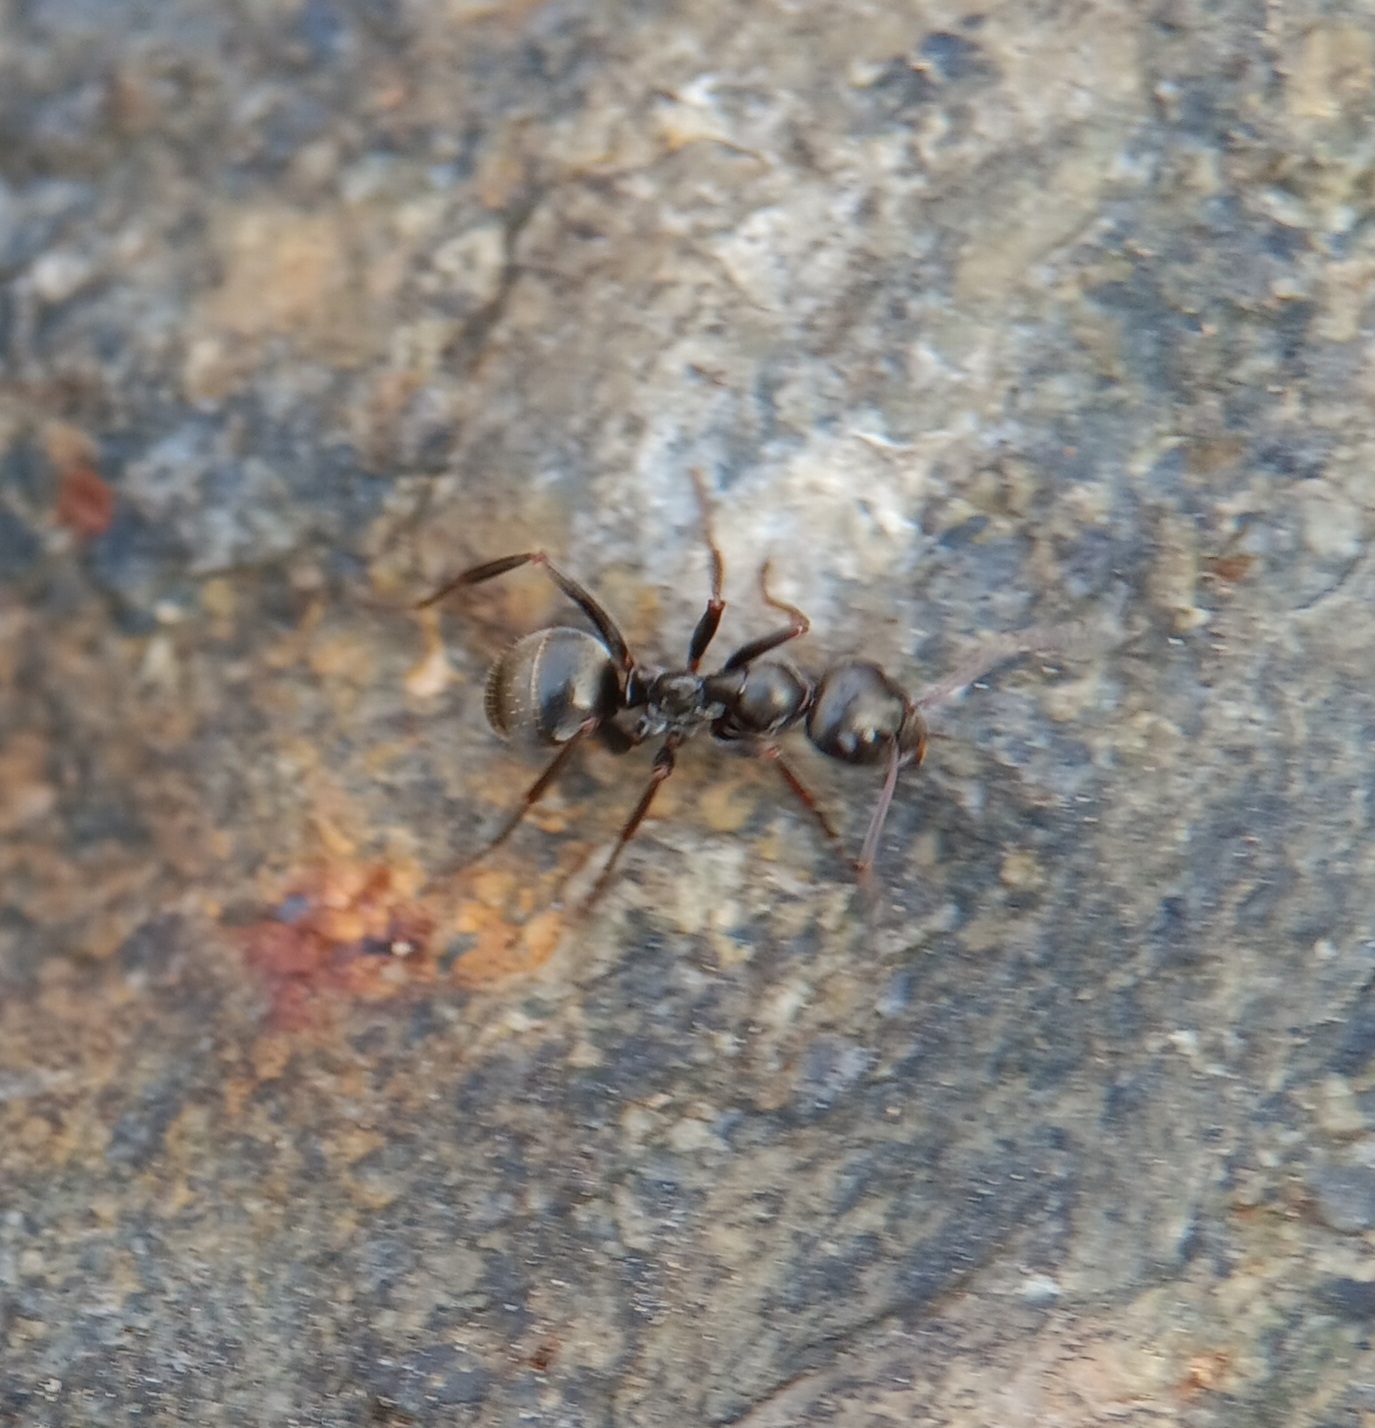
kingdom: Animalia
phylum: Arthropoda
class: Insecta
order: Hymenoptera
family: Formicidae
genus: Formica
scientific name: Formica subsericea
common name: Silky field ant
